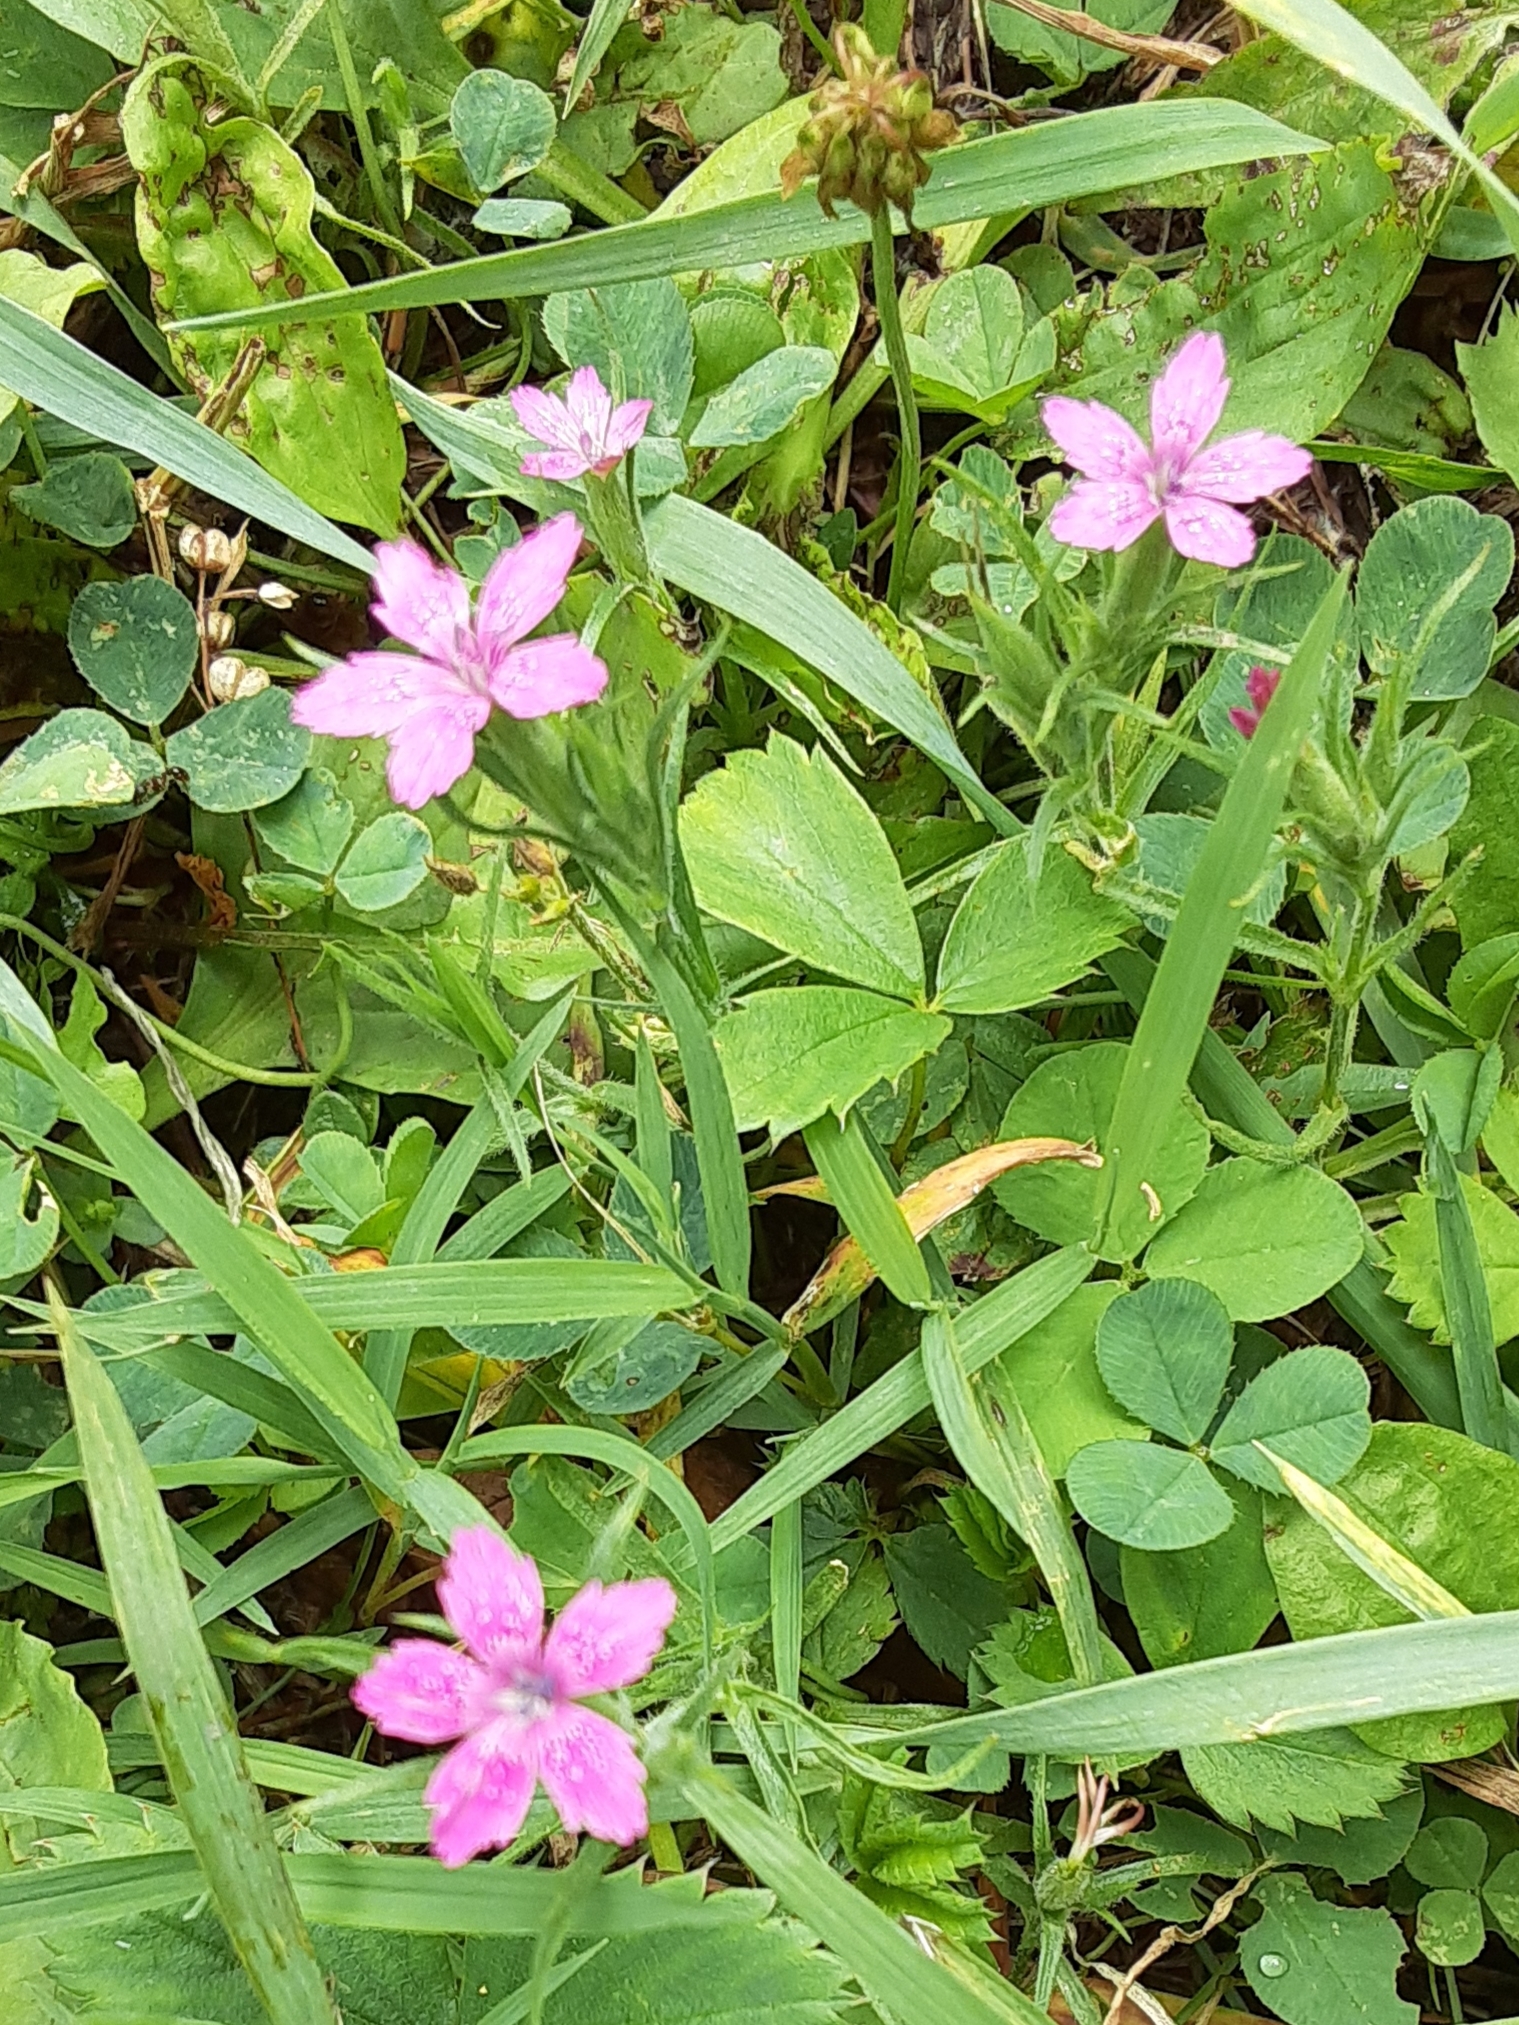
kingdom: Plantae
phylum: Tracheophyta
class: Magnoliopsida
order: Caryophyllales
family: Caryophyllaceae
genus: Dianthus
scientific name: Dianthus armeria
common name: Deptford pink
